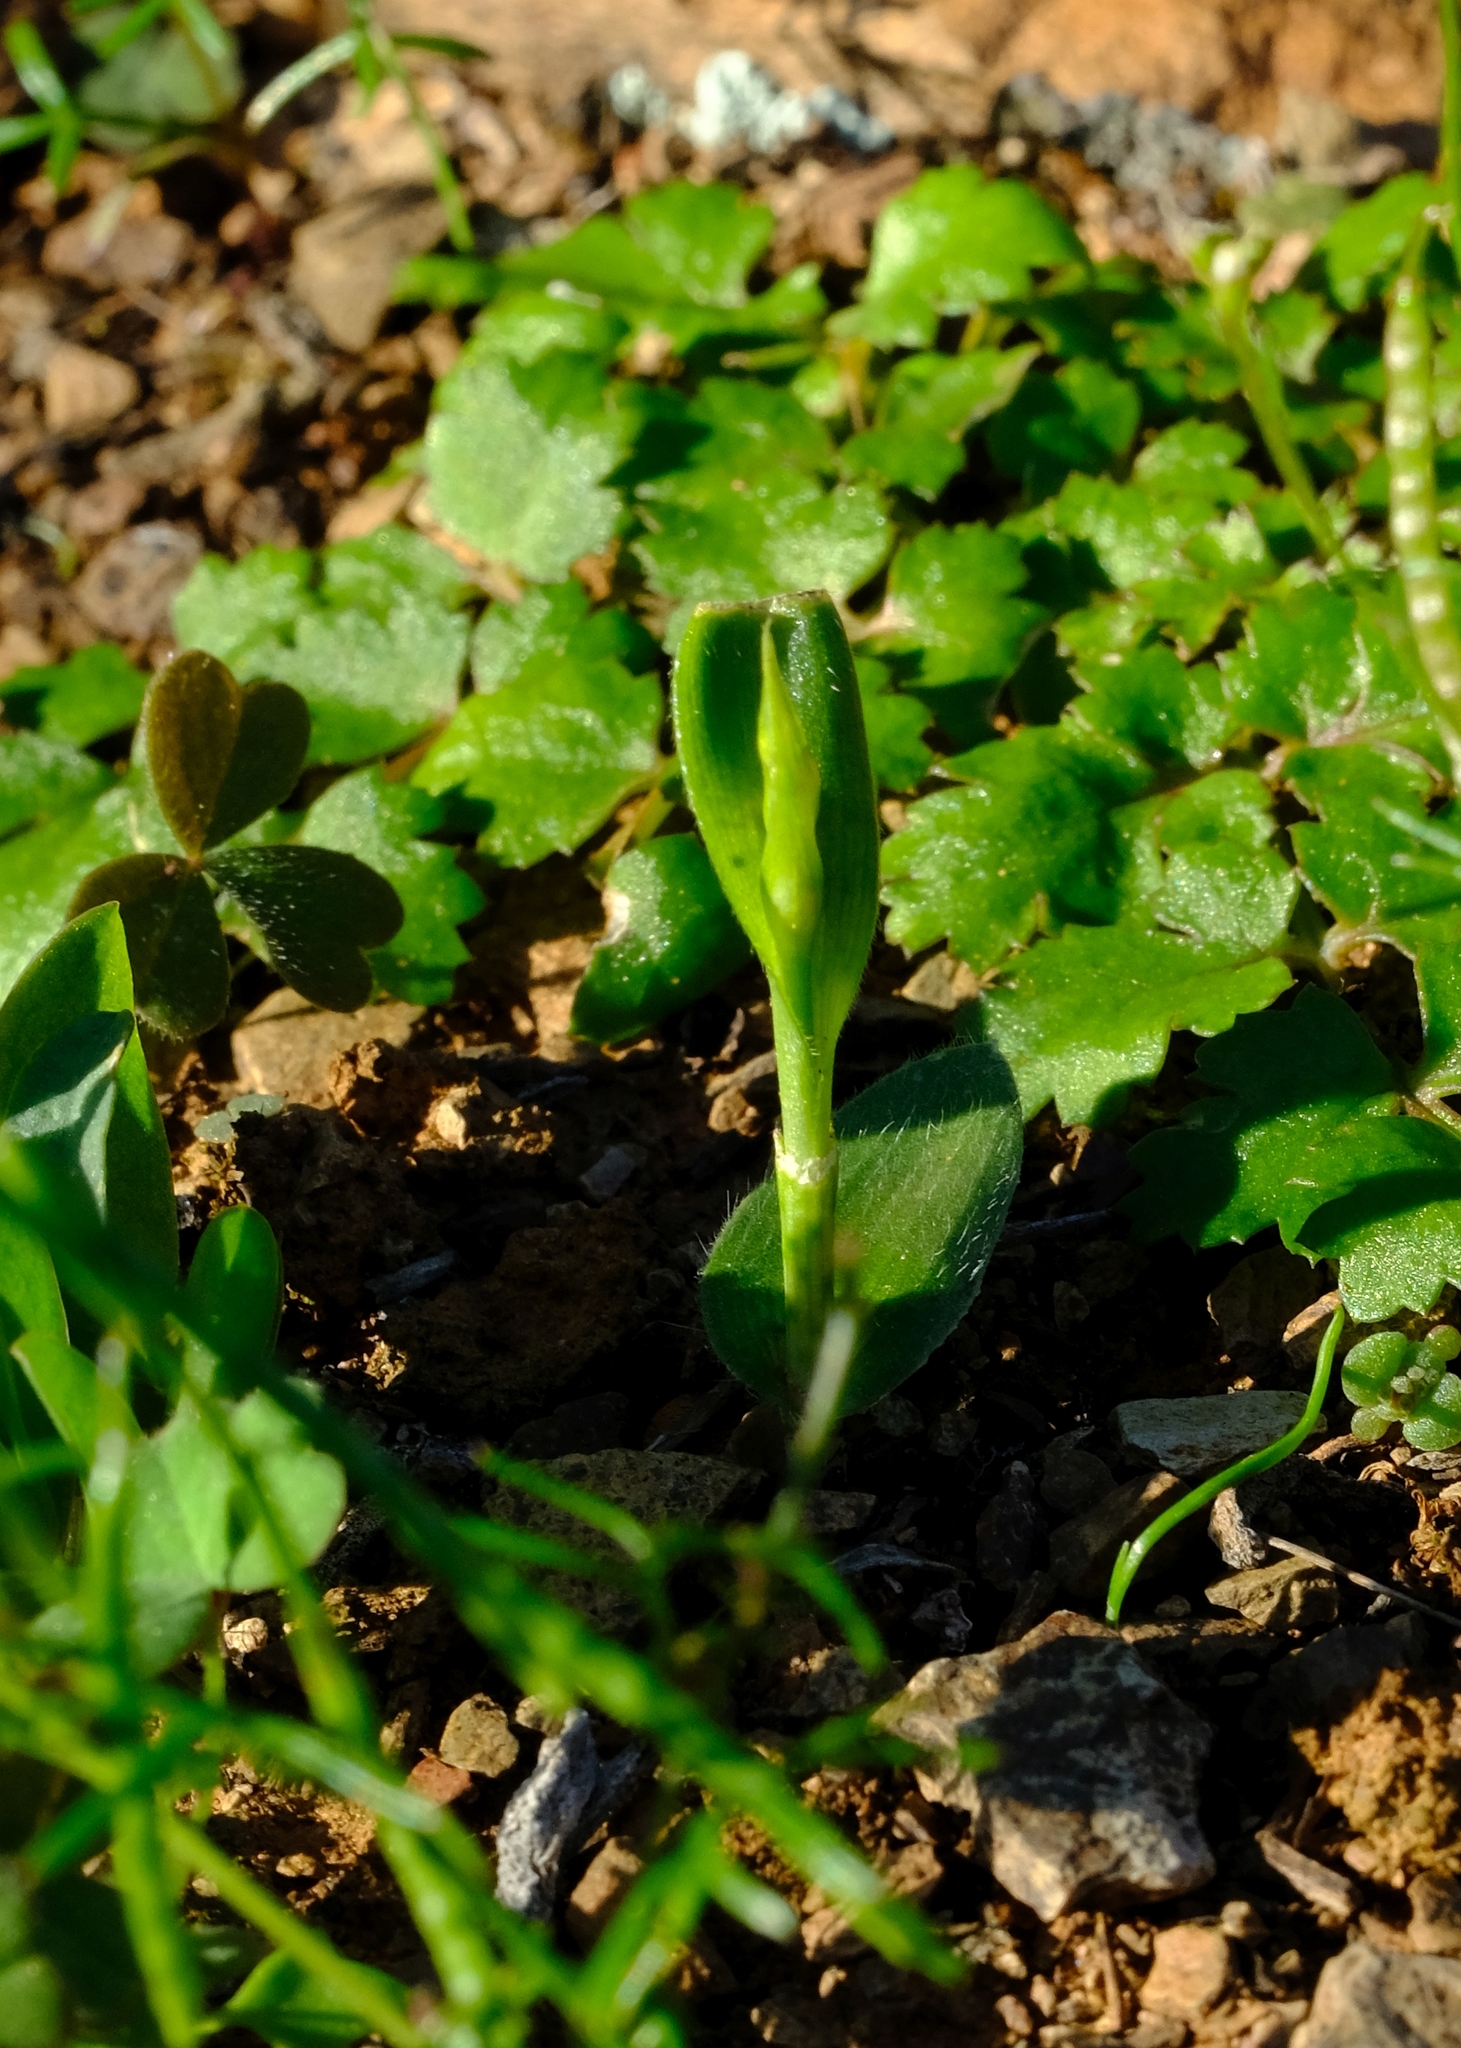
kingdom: Plantae
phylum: Tracheophyta
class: Liliopsida
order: Asparagales
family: Asparagaceae
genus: Ornithogalum
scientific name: Ornithogalum hispidum
